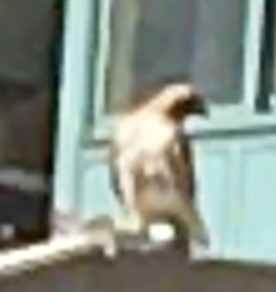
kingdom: Animalia
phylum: Chordata
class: Aves
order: Accipitriformes
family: Accipitridae
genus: Buteo
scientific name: Buteo jamaicensis
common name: Red-tailed hawk
